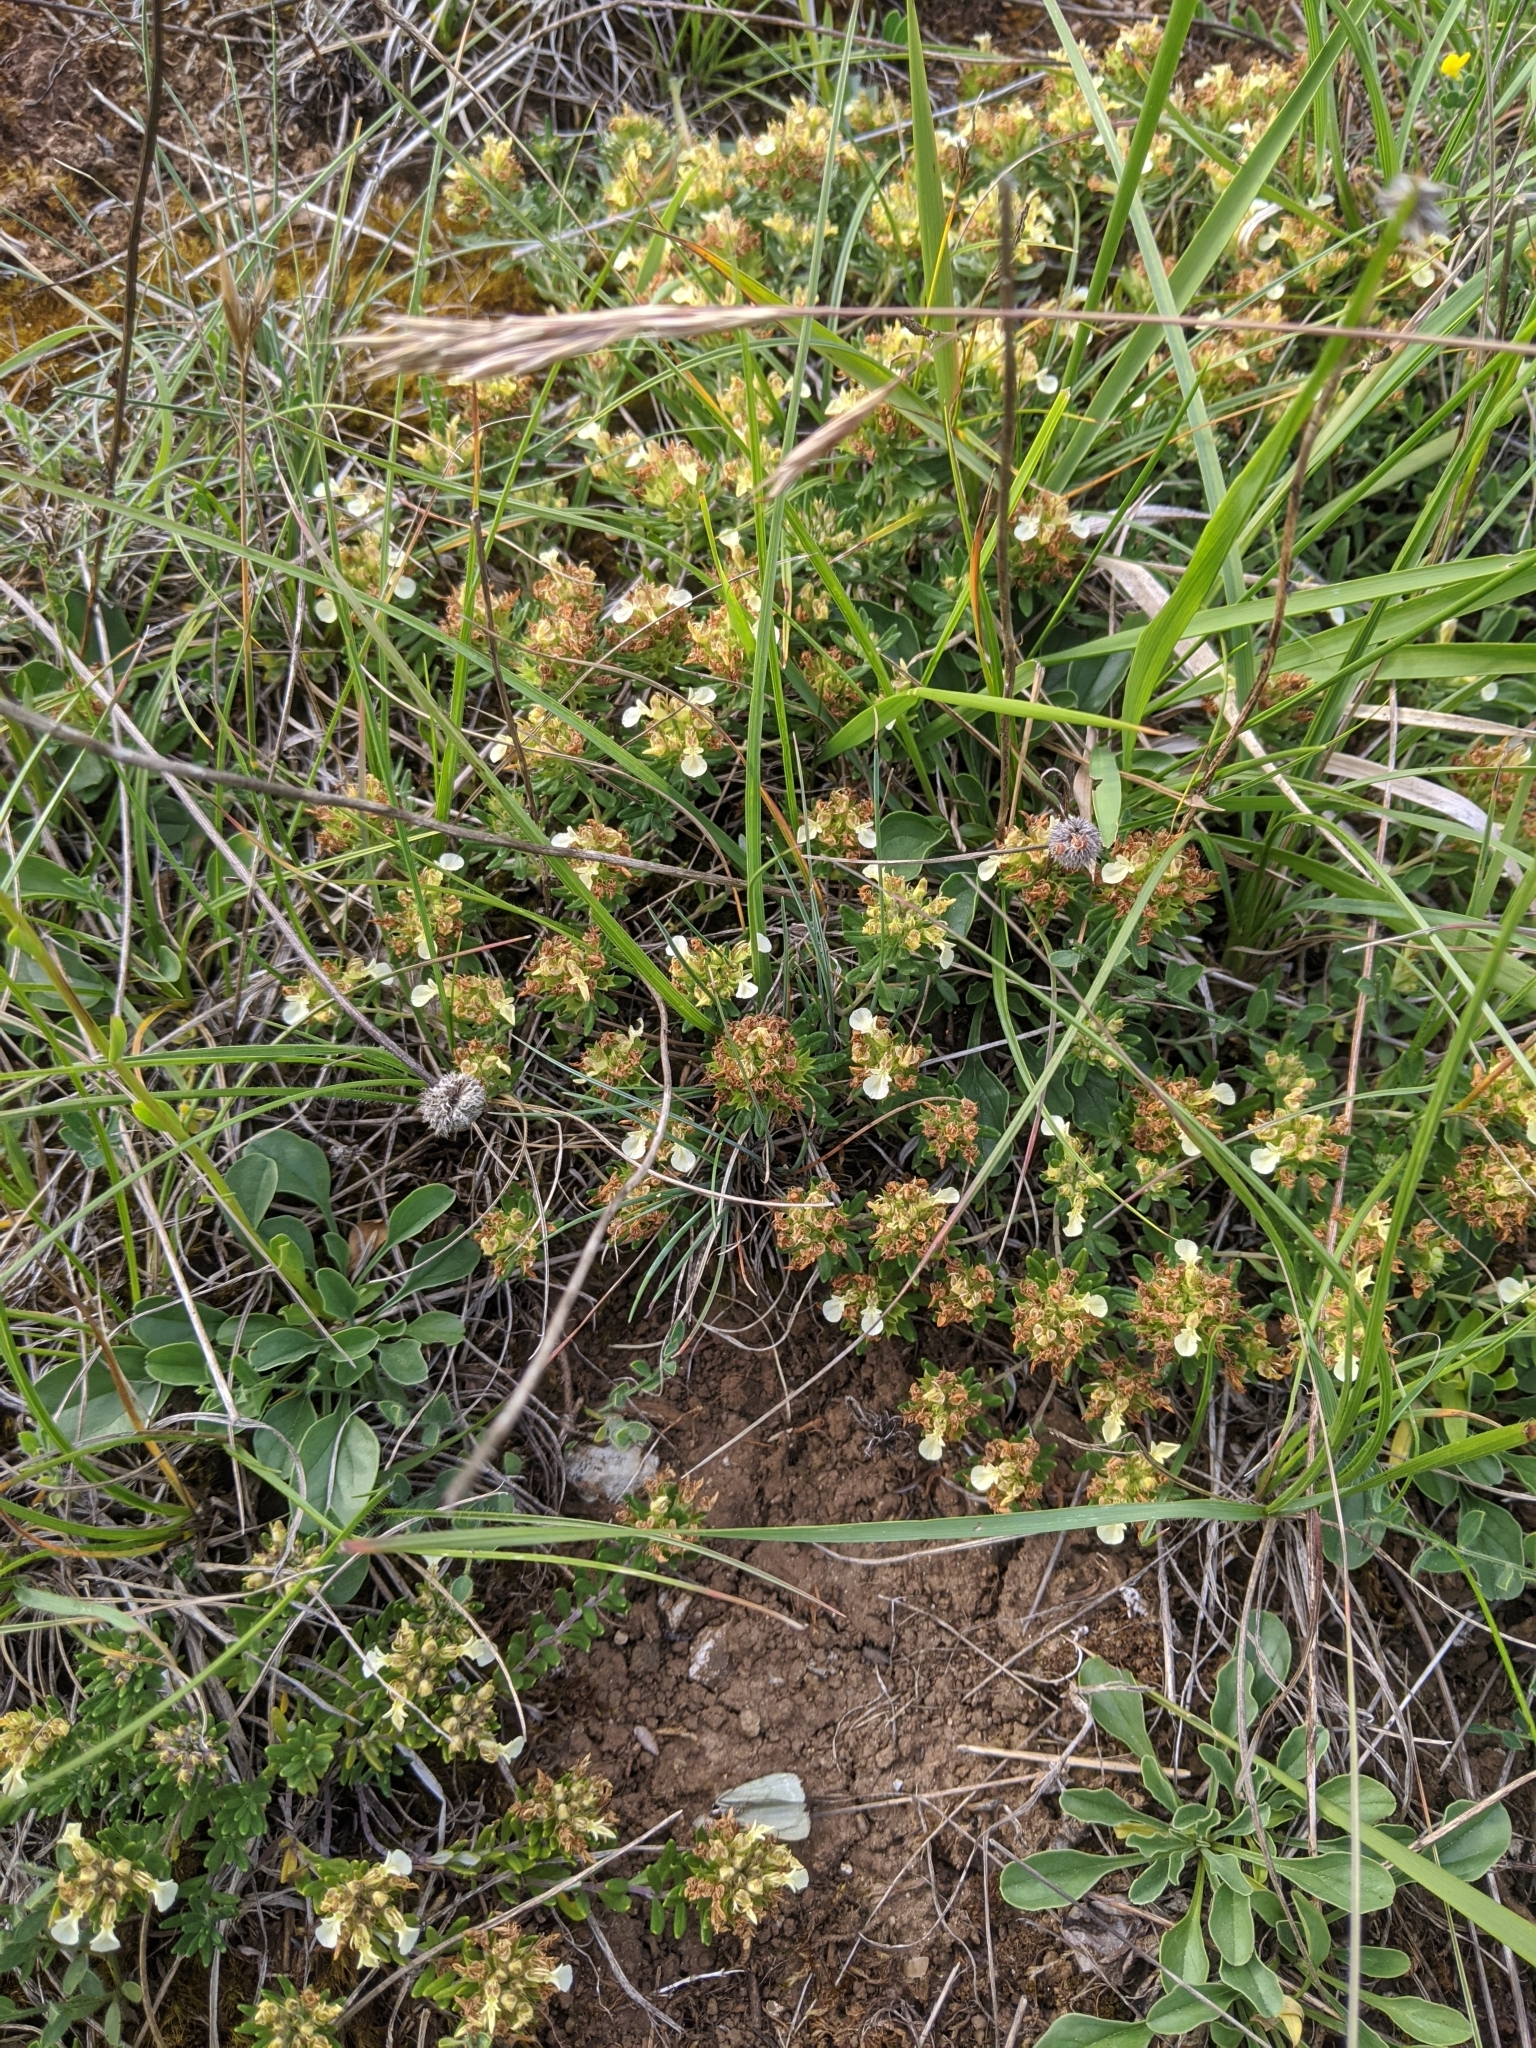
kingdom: Plantae
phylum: Tracheophyta
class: Magnoliopsida
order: Lamiales
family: Lamiaceae
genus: Teucrium
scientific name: Teucrium montanum
